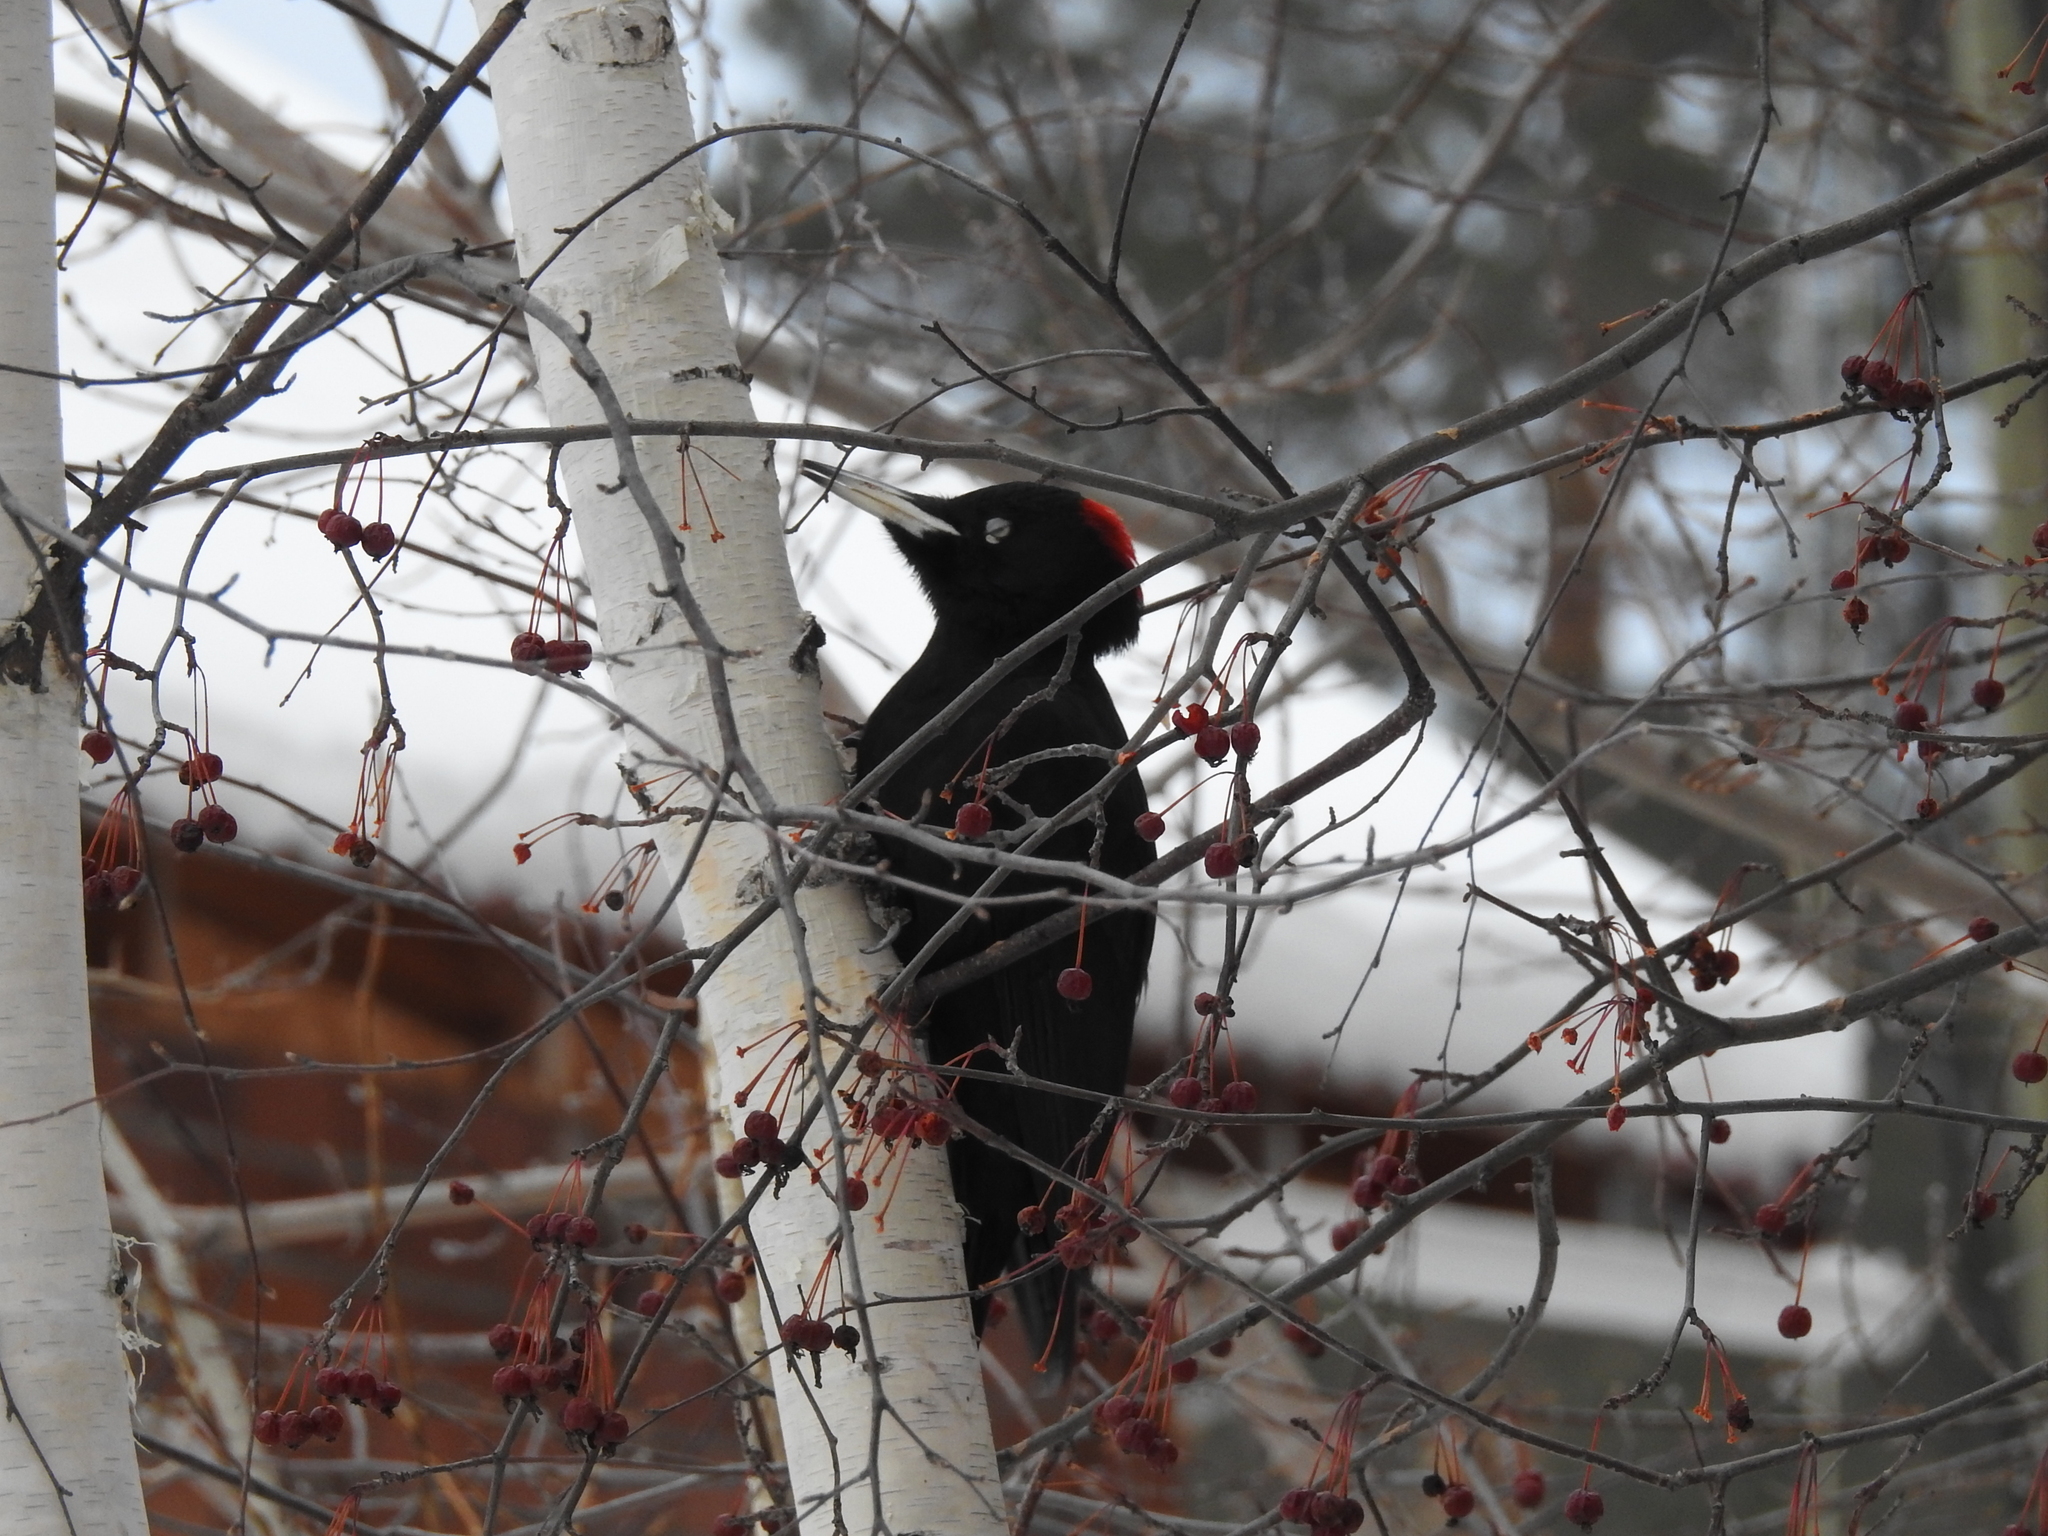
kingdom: Animalia
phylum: Chordata
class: Aves
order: Piciformes
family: Picidae
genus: Dryocopus
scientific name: Dryocopus martius
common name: Black woodpecker
